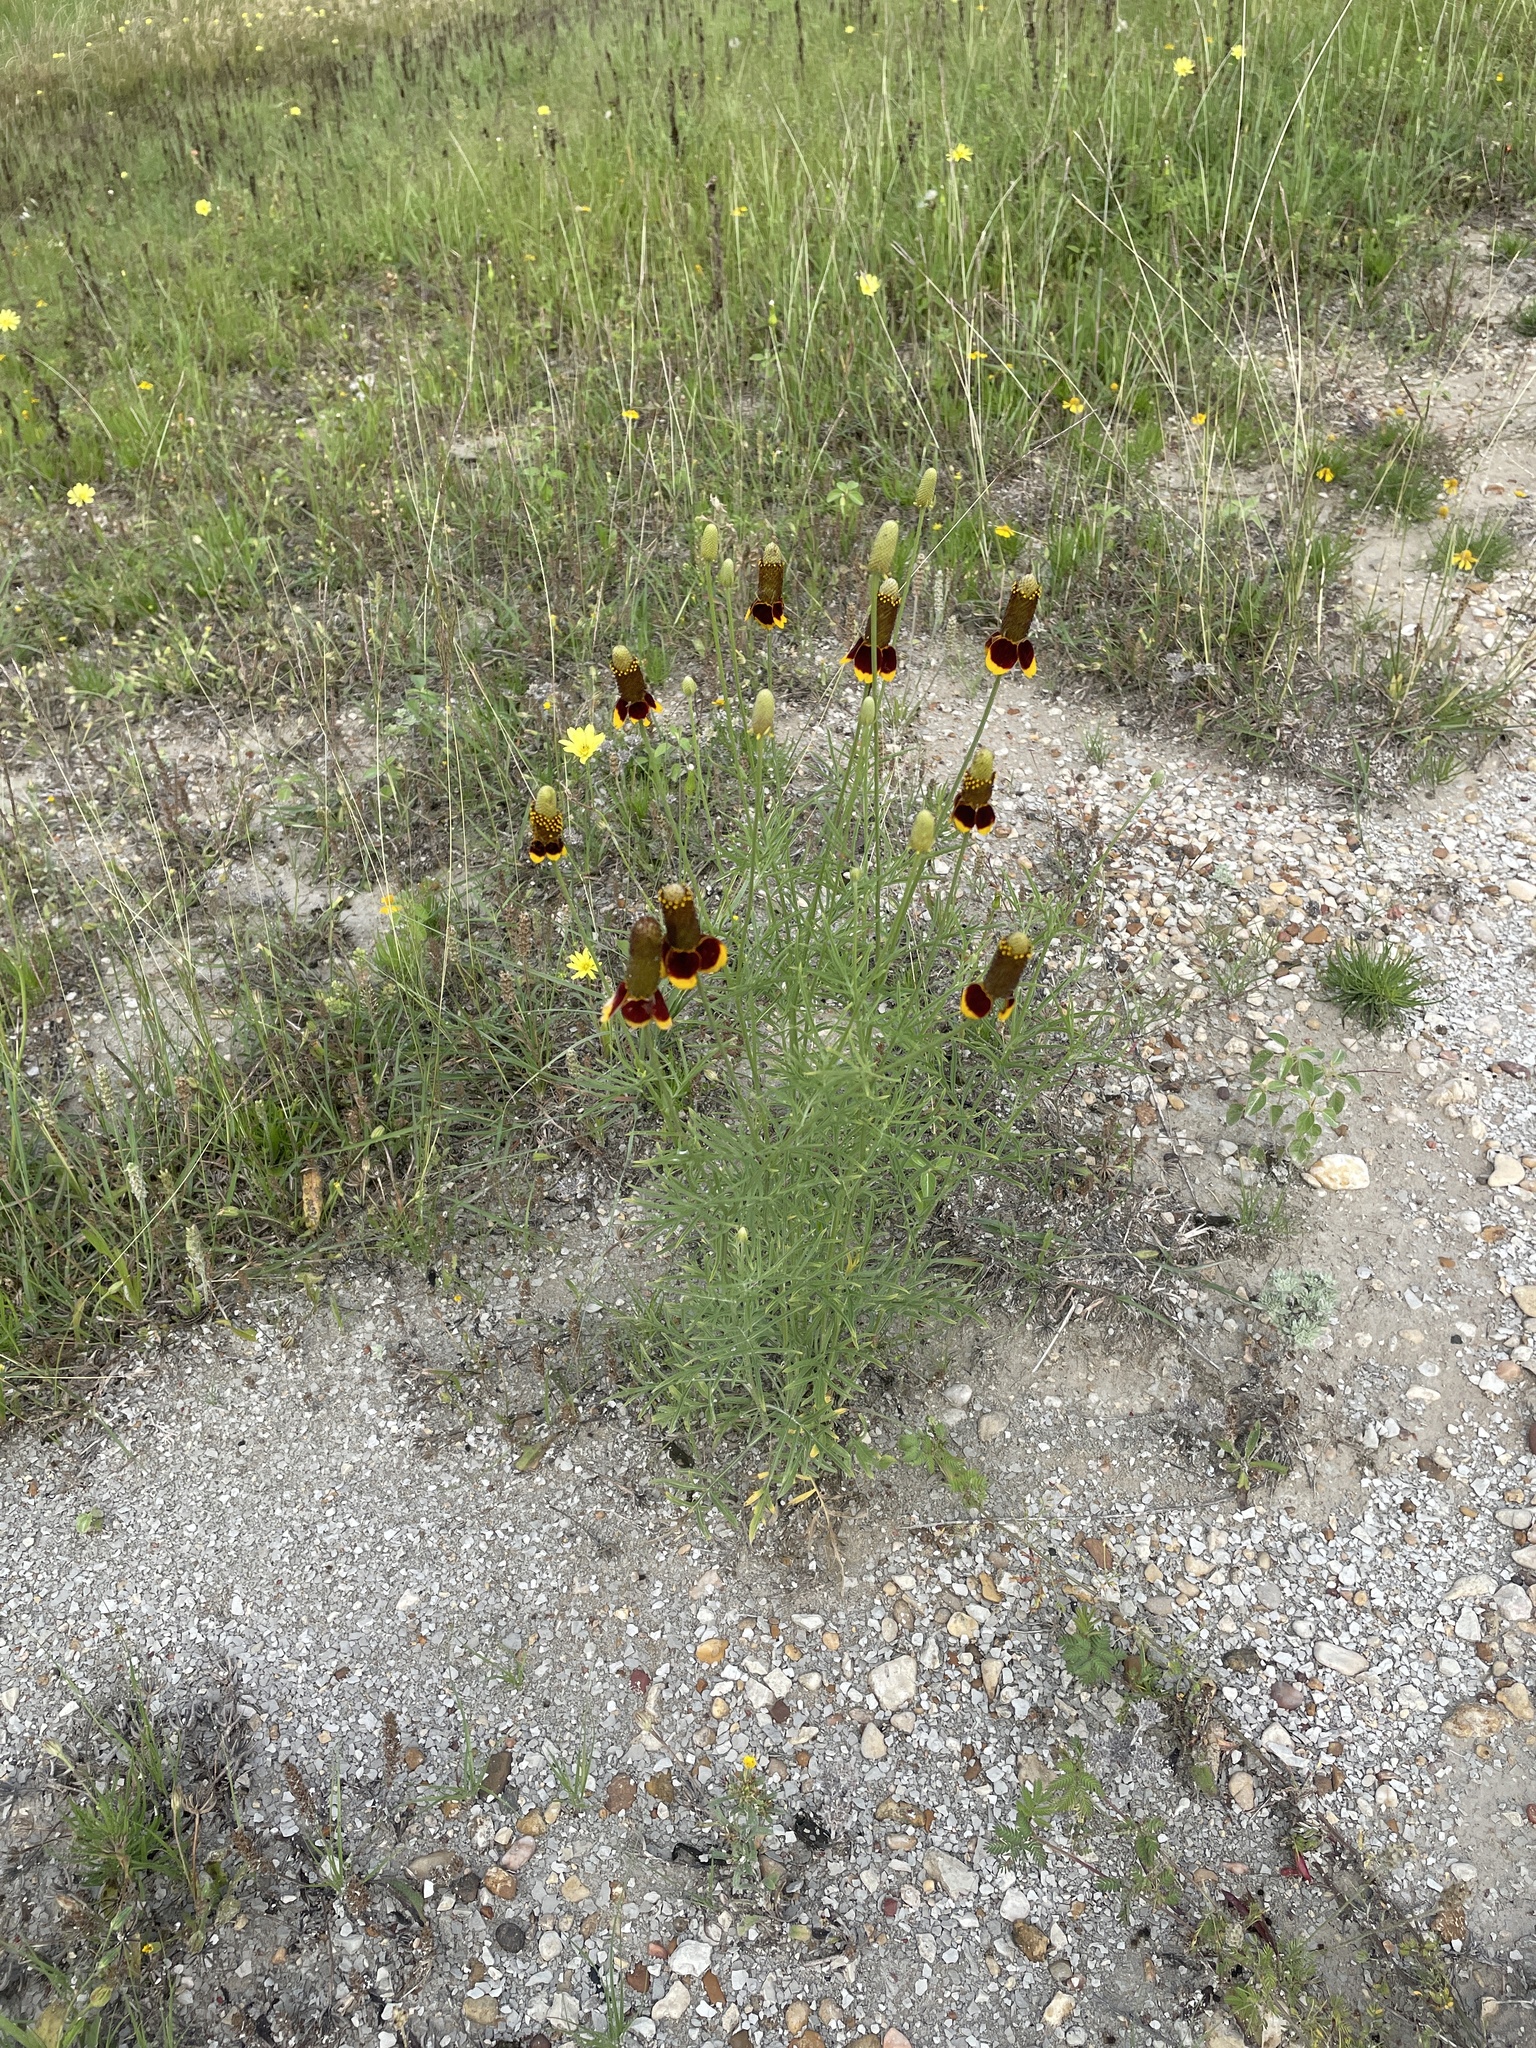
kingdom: Plantae
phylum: Tracheophyta
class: Magnoliopsida
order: Asterales
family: Asteraceae
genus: Ratibida
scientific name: Ratibida columnifera
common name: Prairie coneflower
